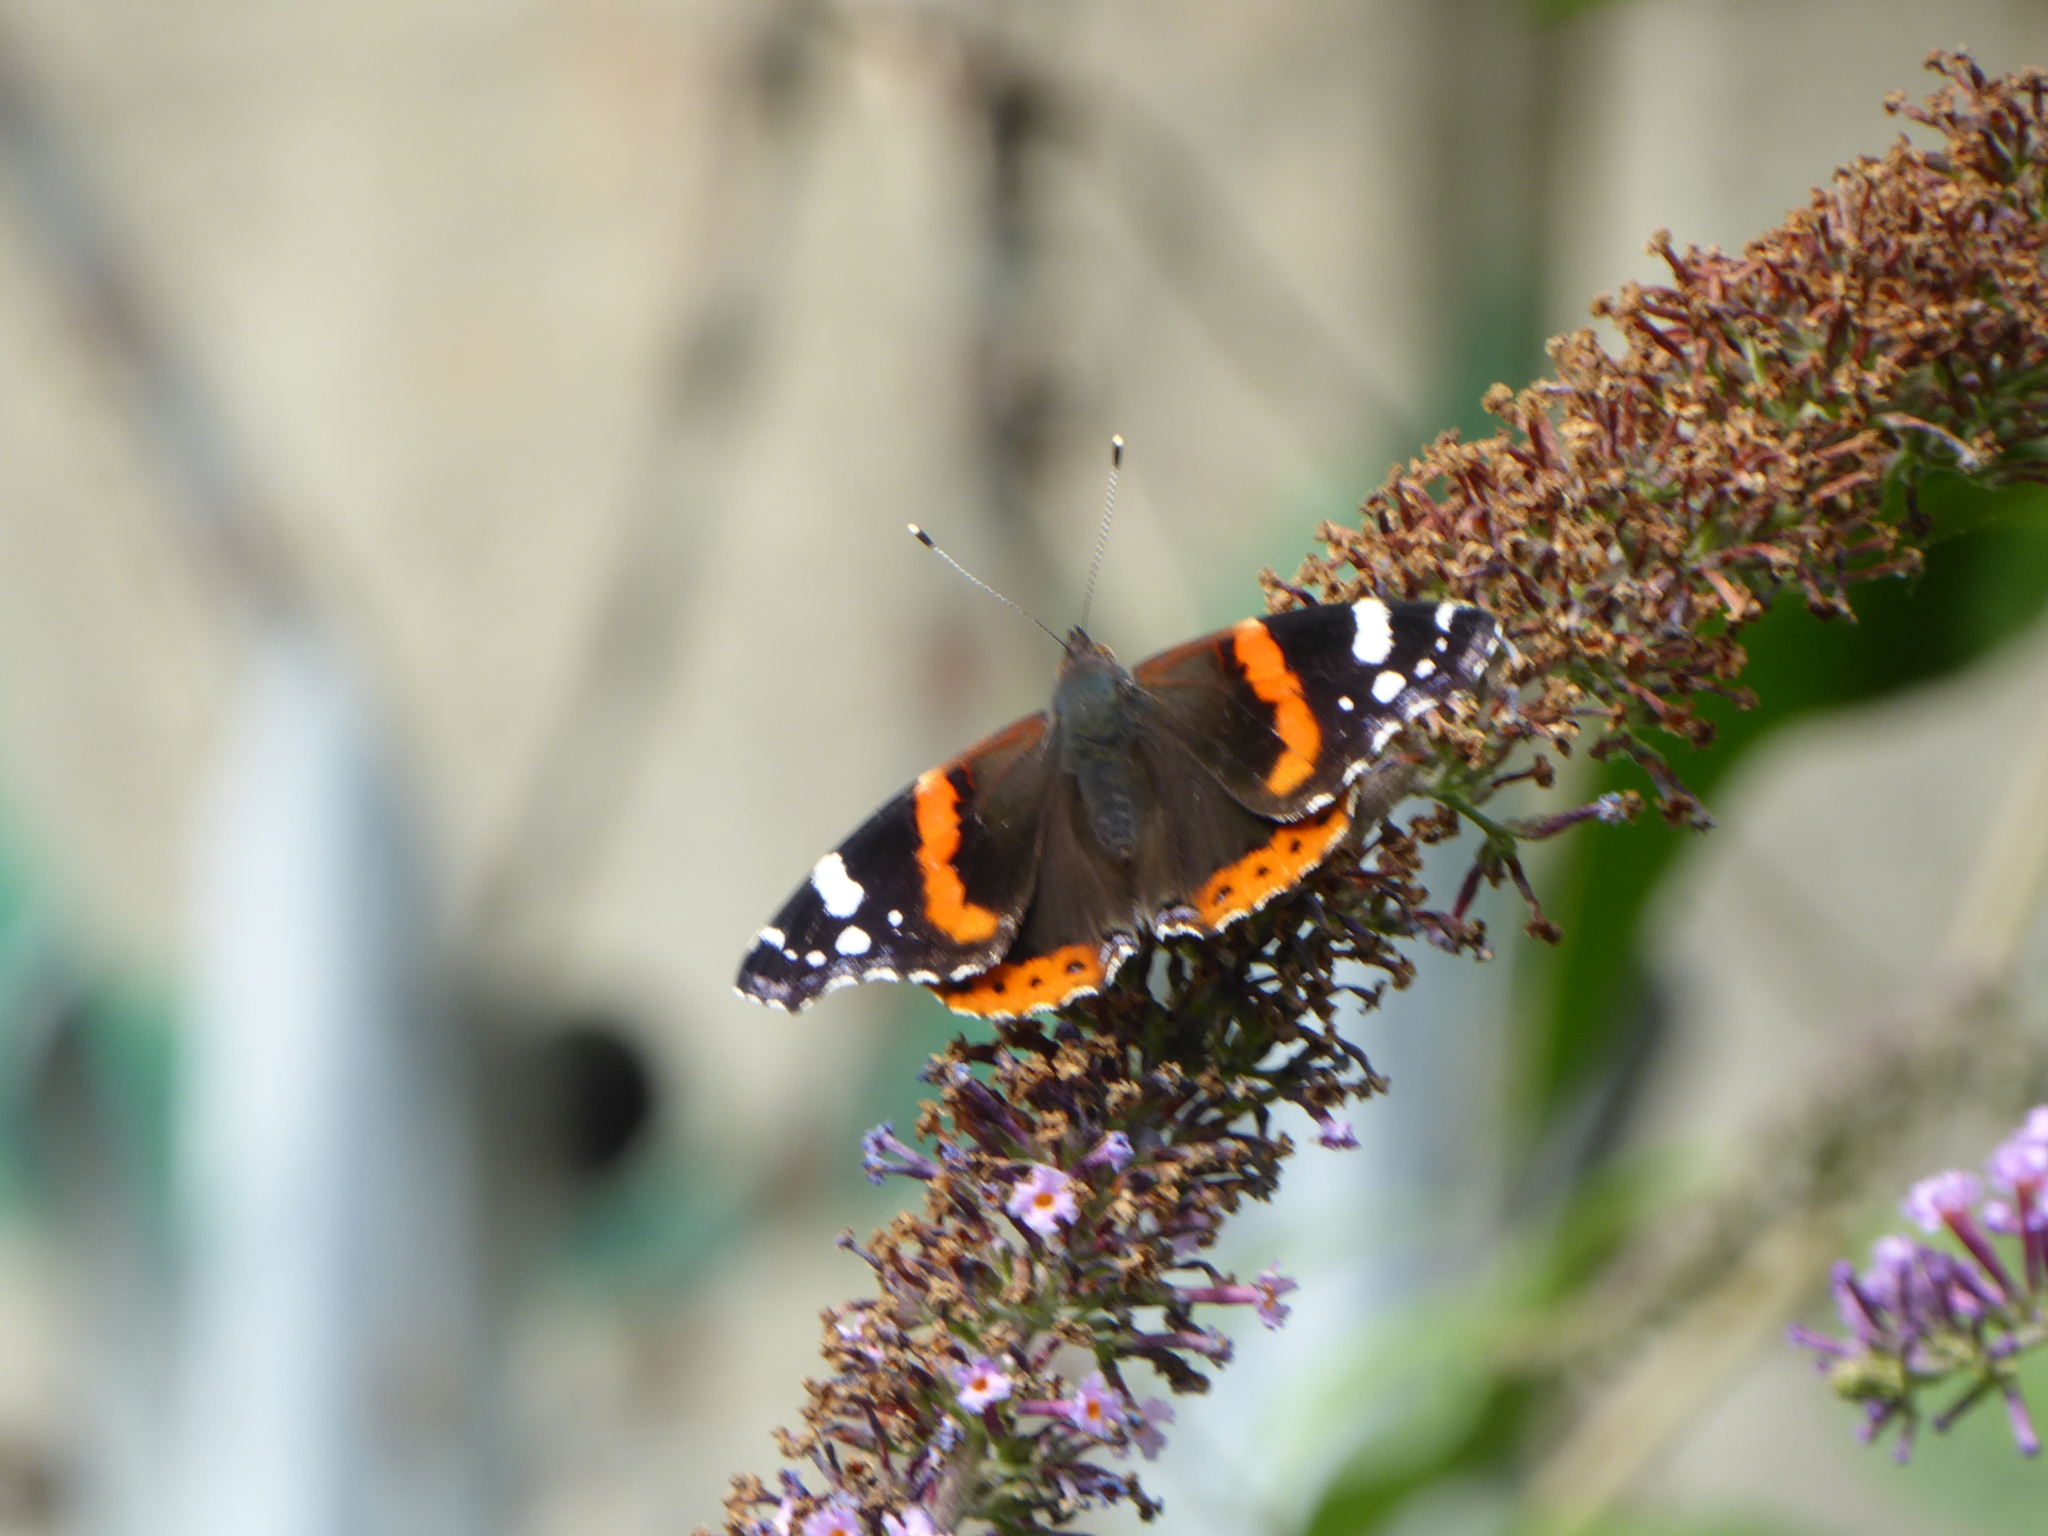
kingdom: Animalia
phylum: Arthropoda
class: Insecta
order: Lepidoptera
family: Nymphalidae
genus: Vanessa
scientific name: Vanessa atalanta
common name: Red admiral
